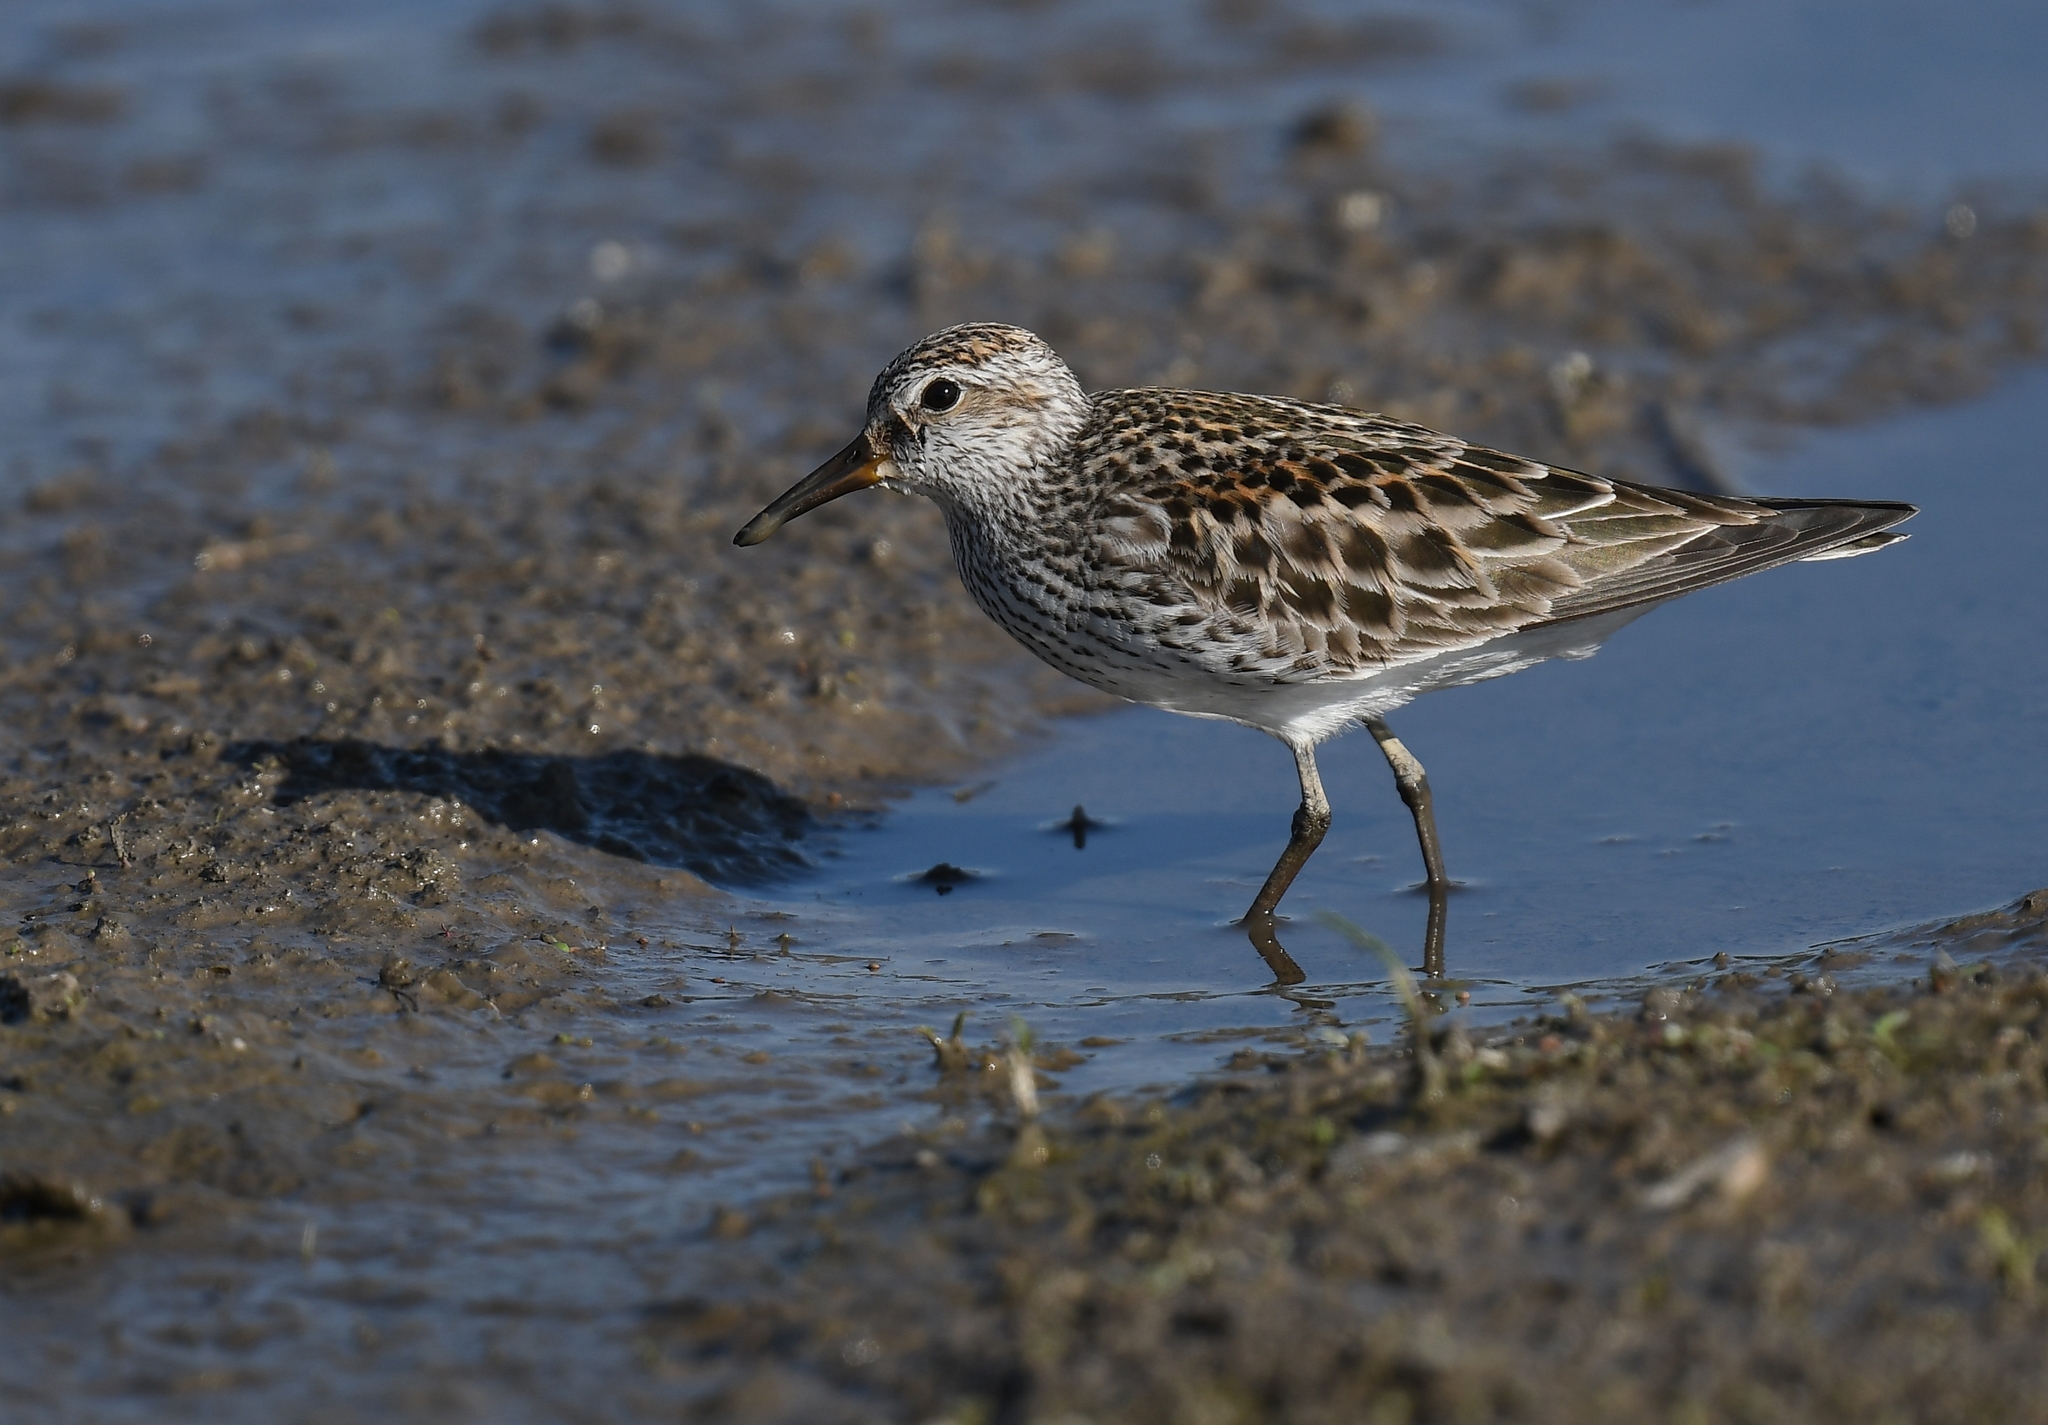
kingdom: Animalia
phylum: Chordata
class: Aves
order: Charadriiformes
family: Scolopacidae
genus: Calidris
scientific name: Calidris fuscicollis
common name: White-rumped sandpiper
